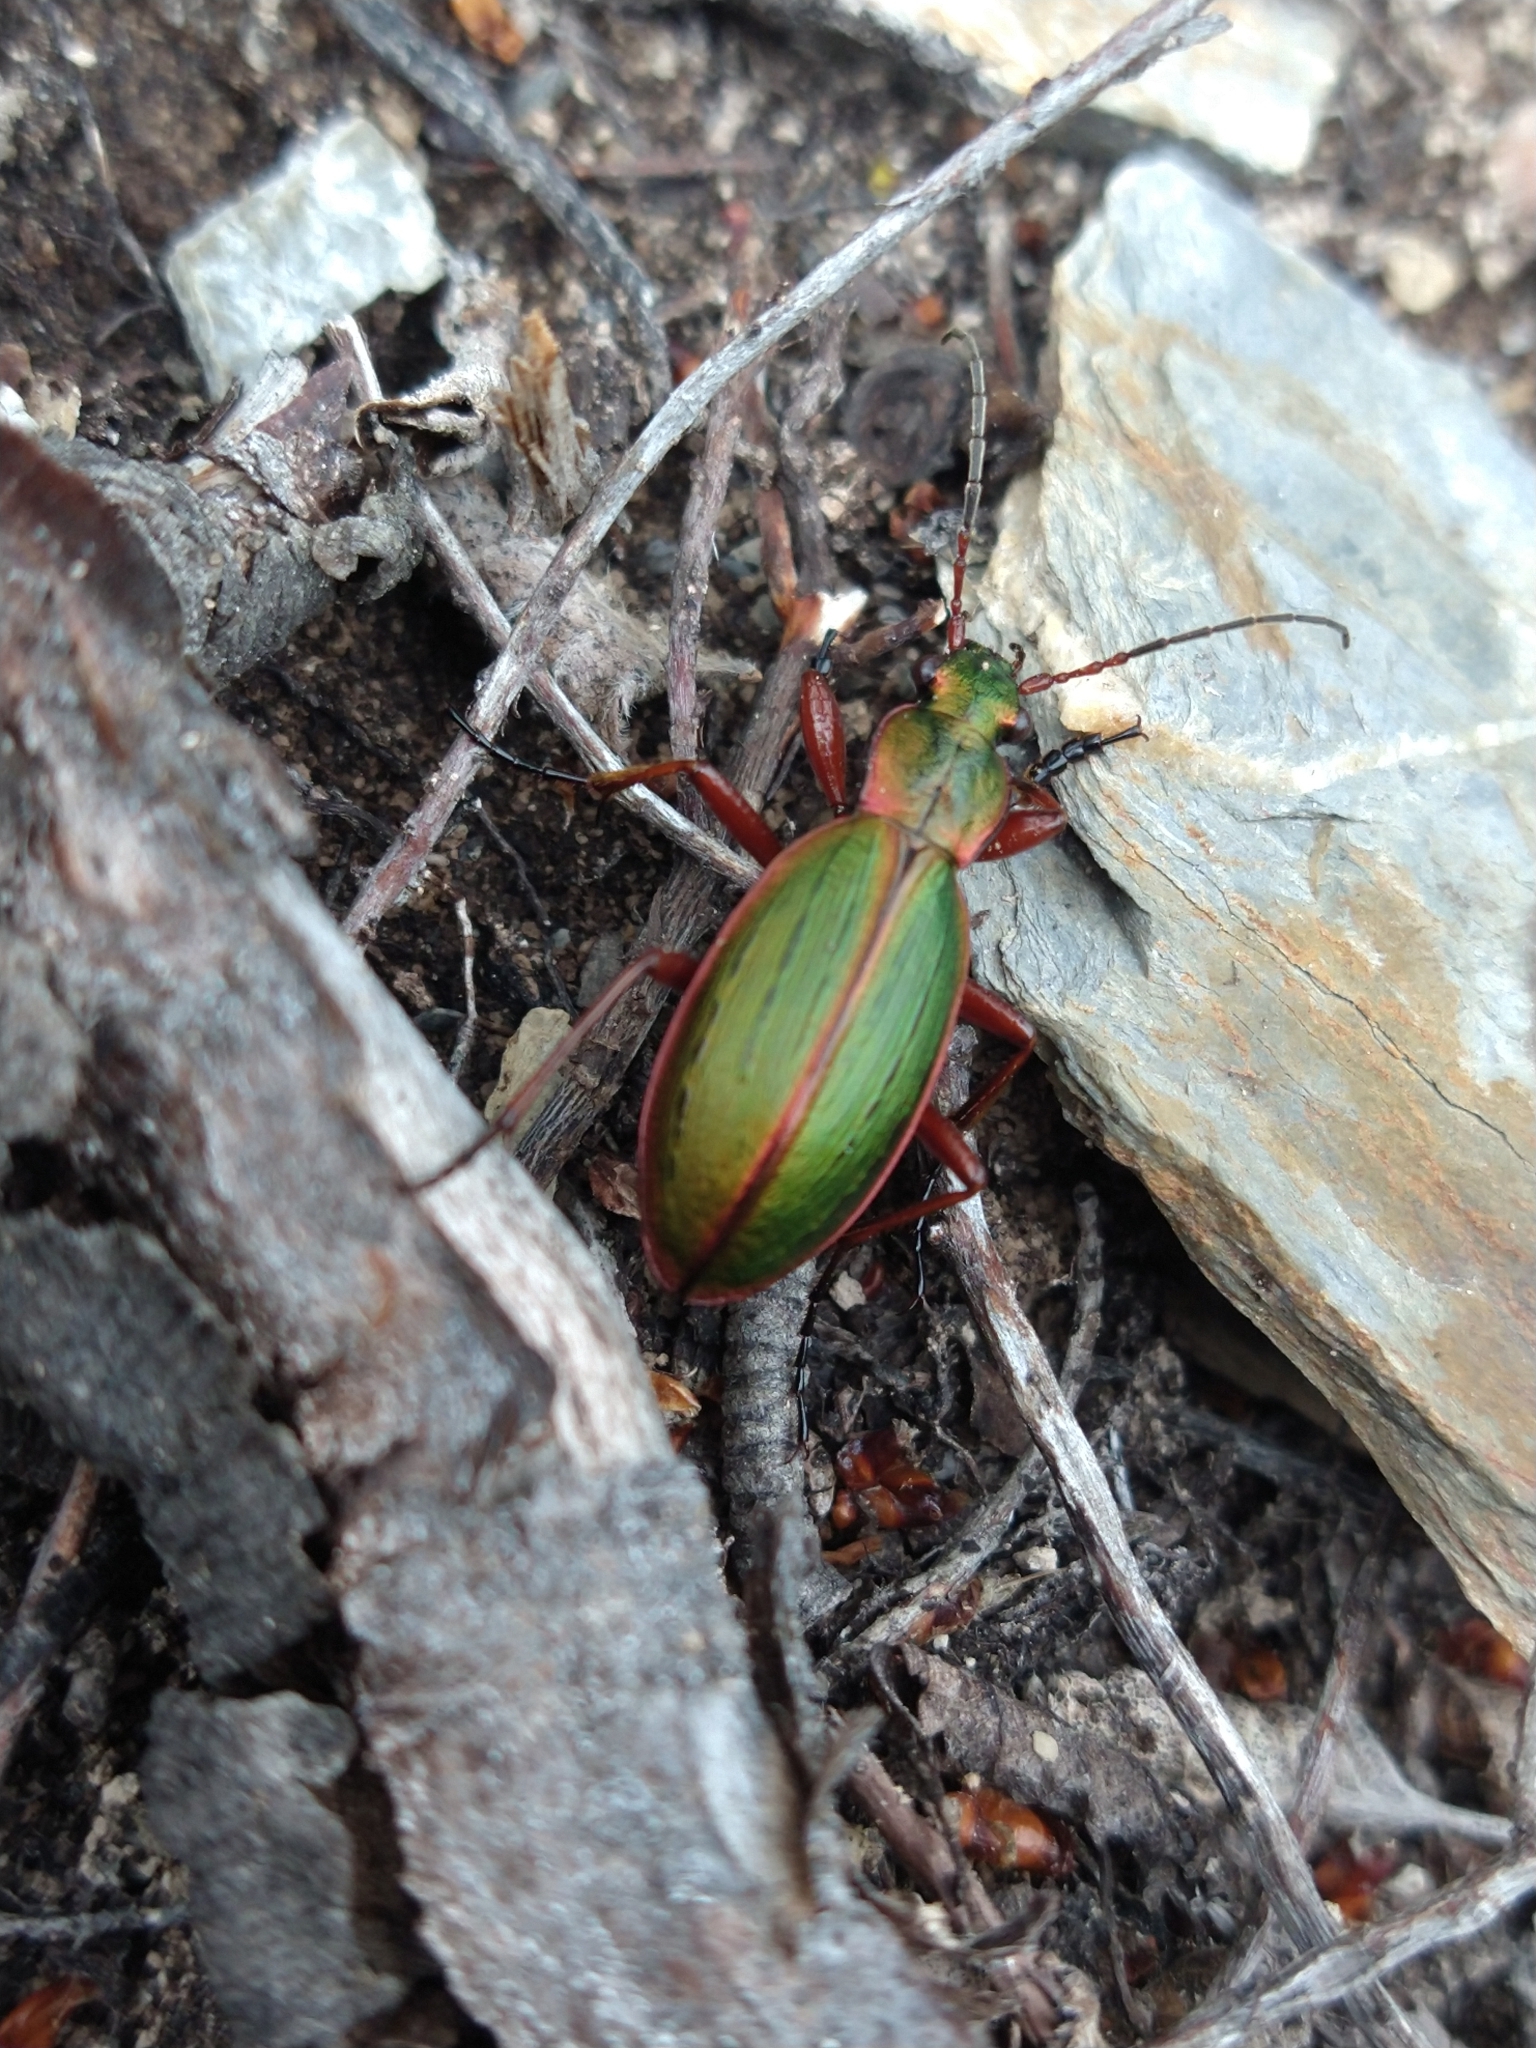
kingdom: Animalia
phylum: Arthropoda
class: Insecta
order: Coleoptera
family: Carabidae
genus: Ceroglossus
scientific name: Ceroglossus suturalis
